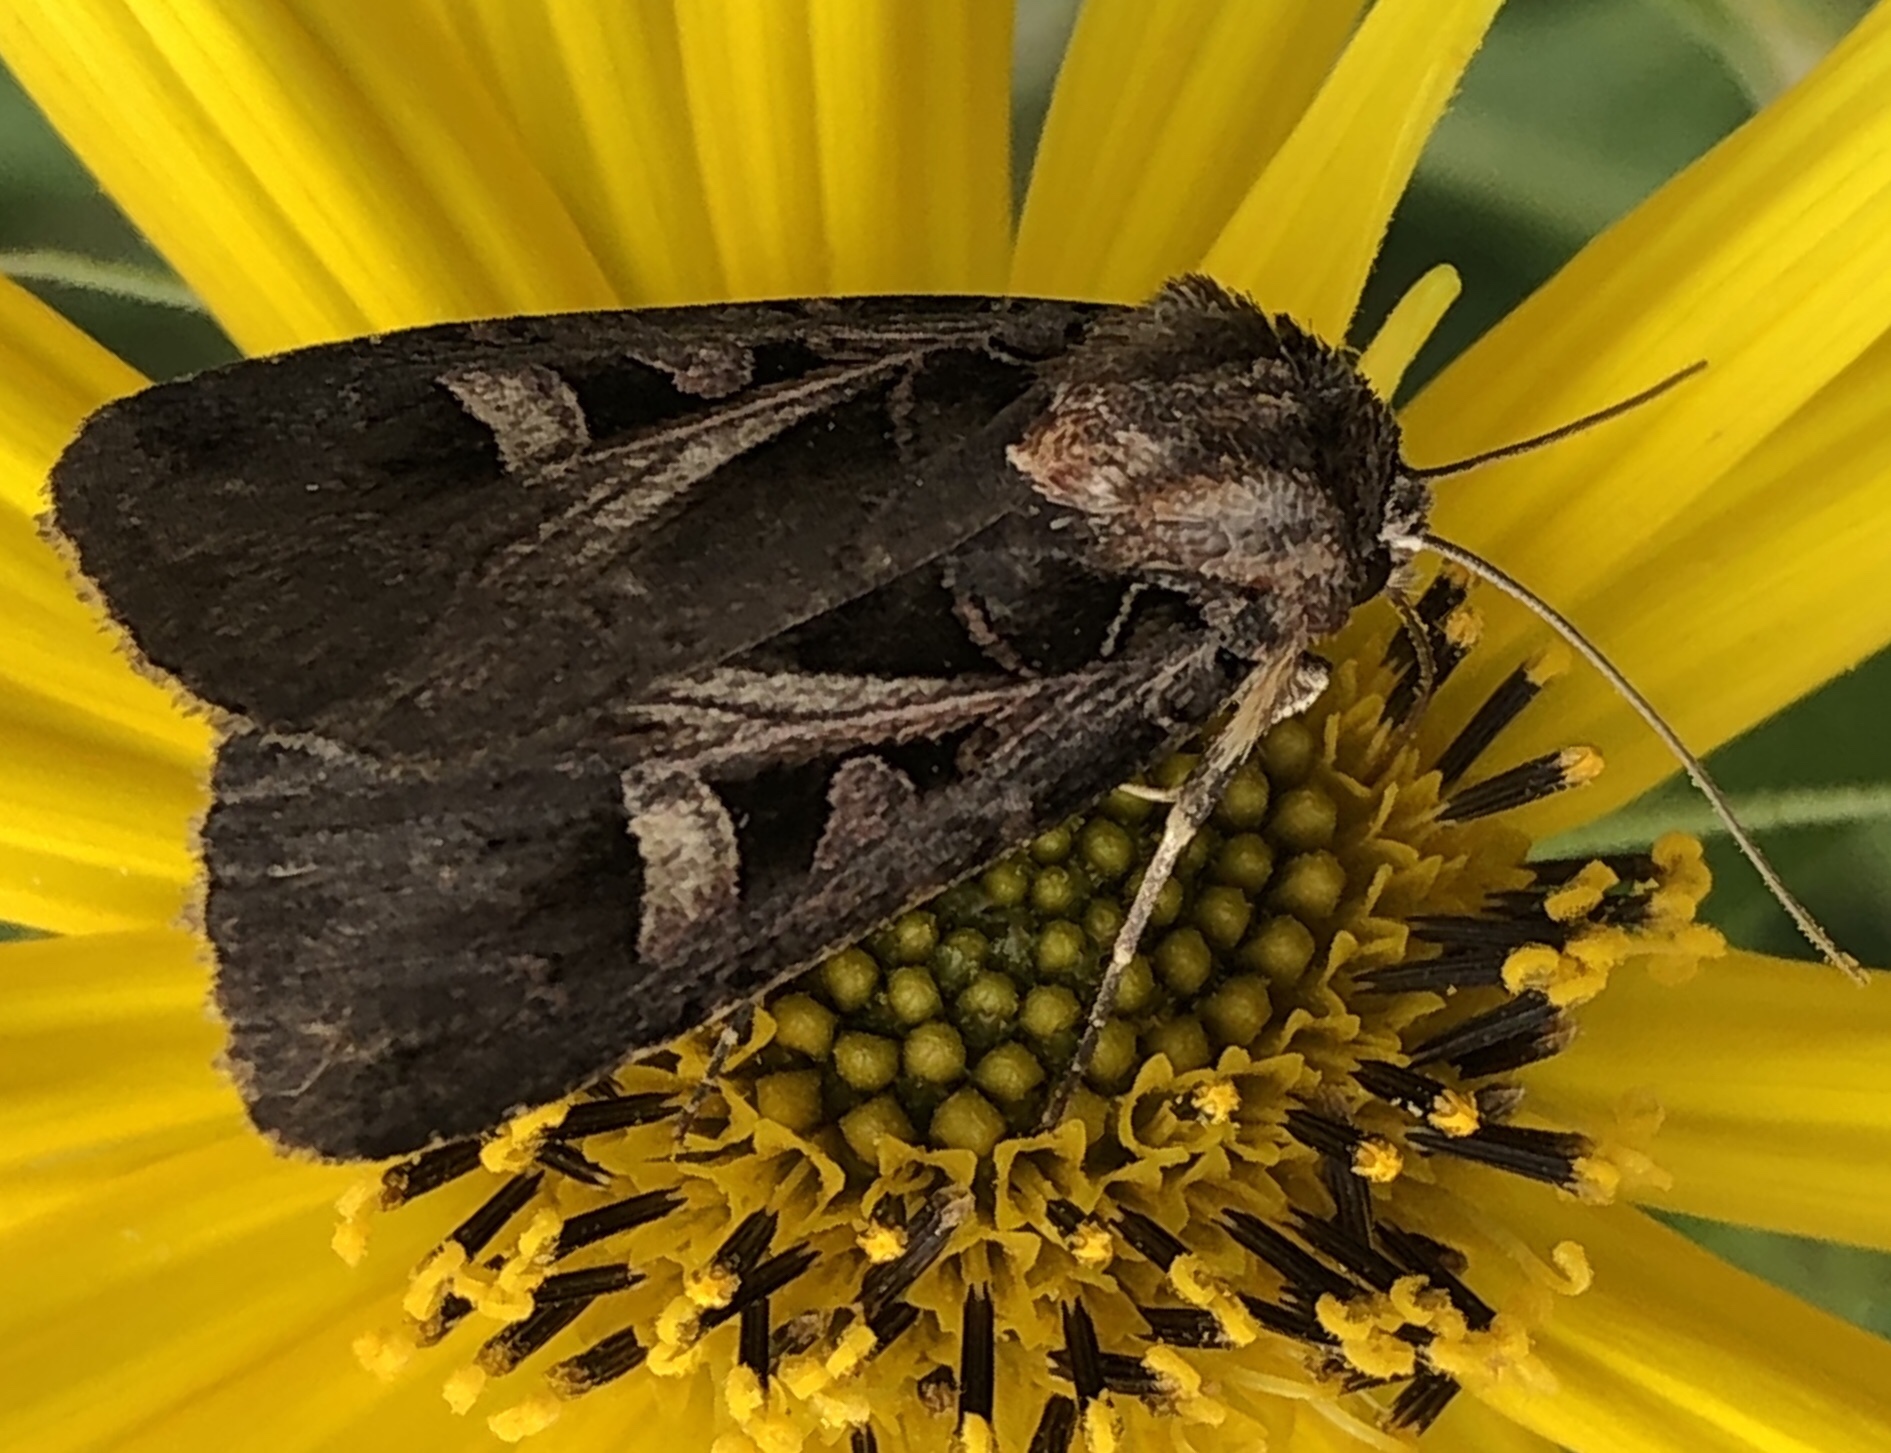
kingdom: Animalia
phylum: Arthropoda
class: Insecta
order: Lepidoptera
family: Noctuidae
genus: Feltia
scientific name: Feltia herilis
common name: Master's dart
